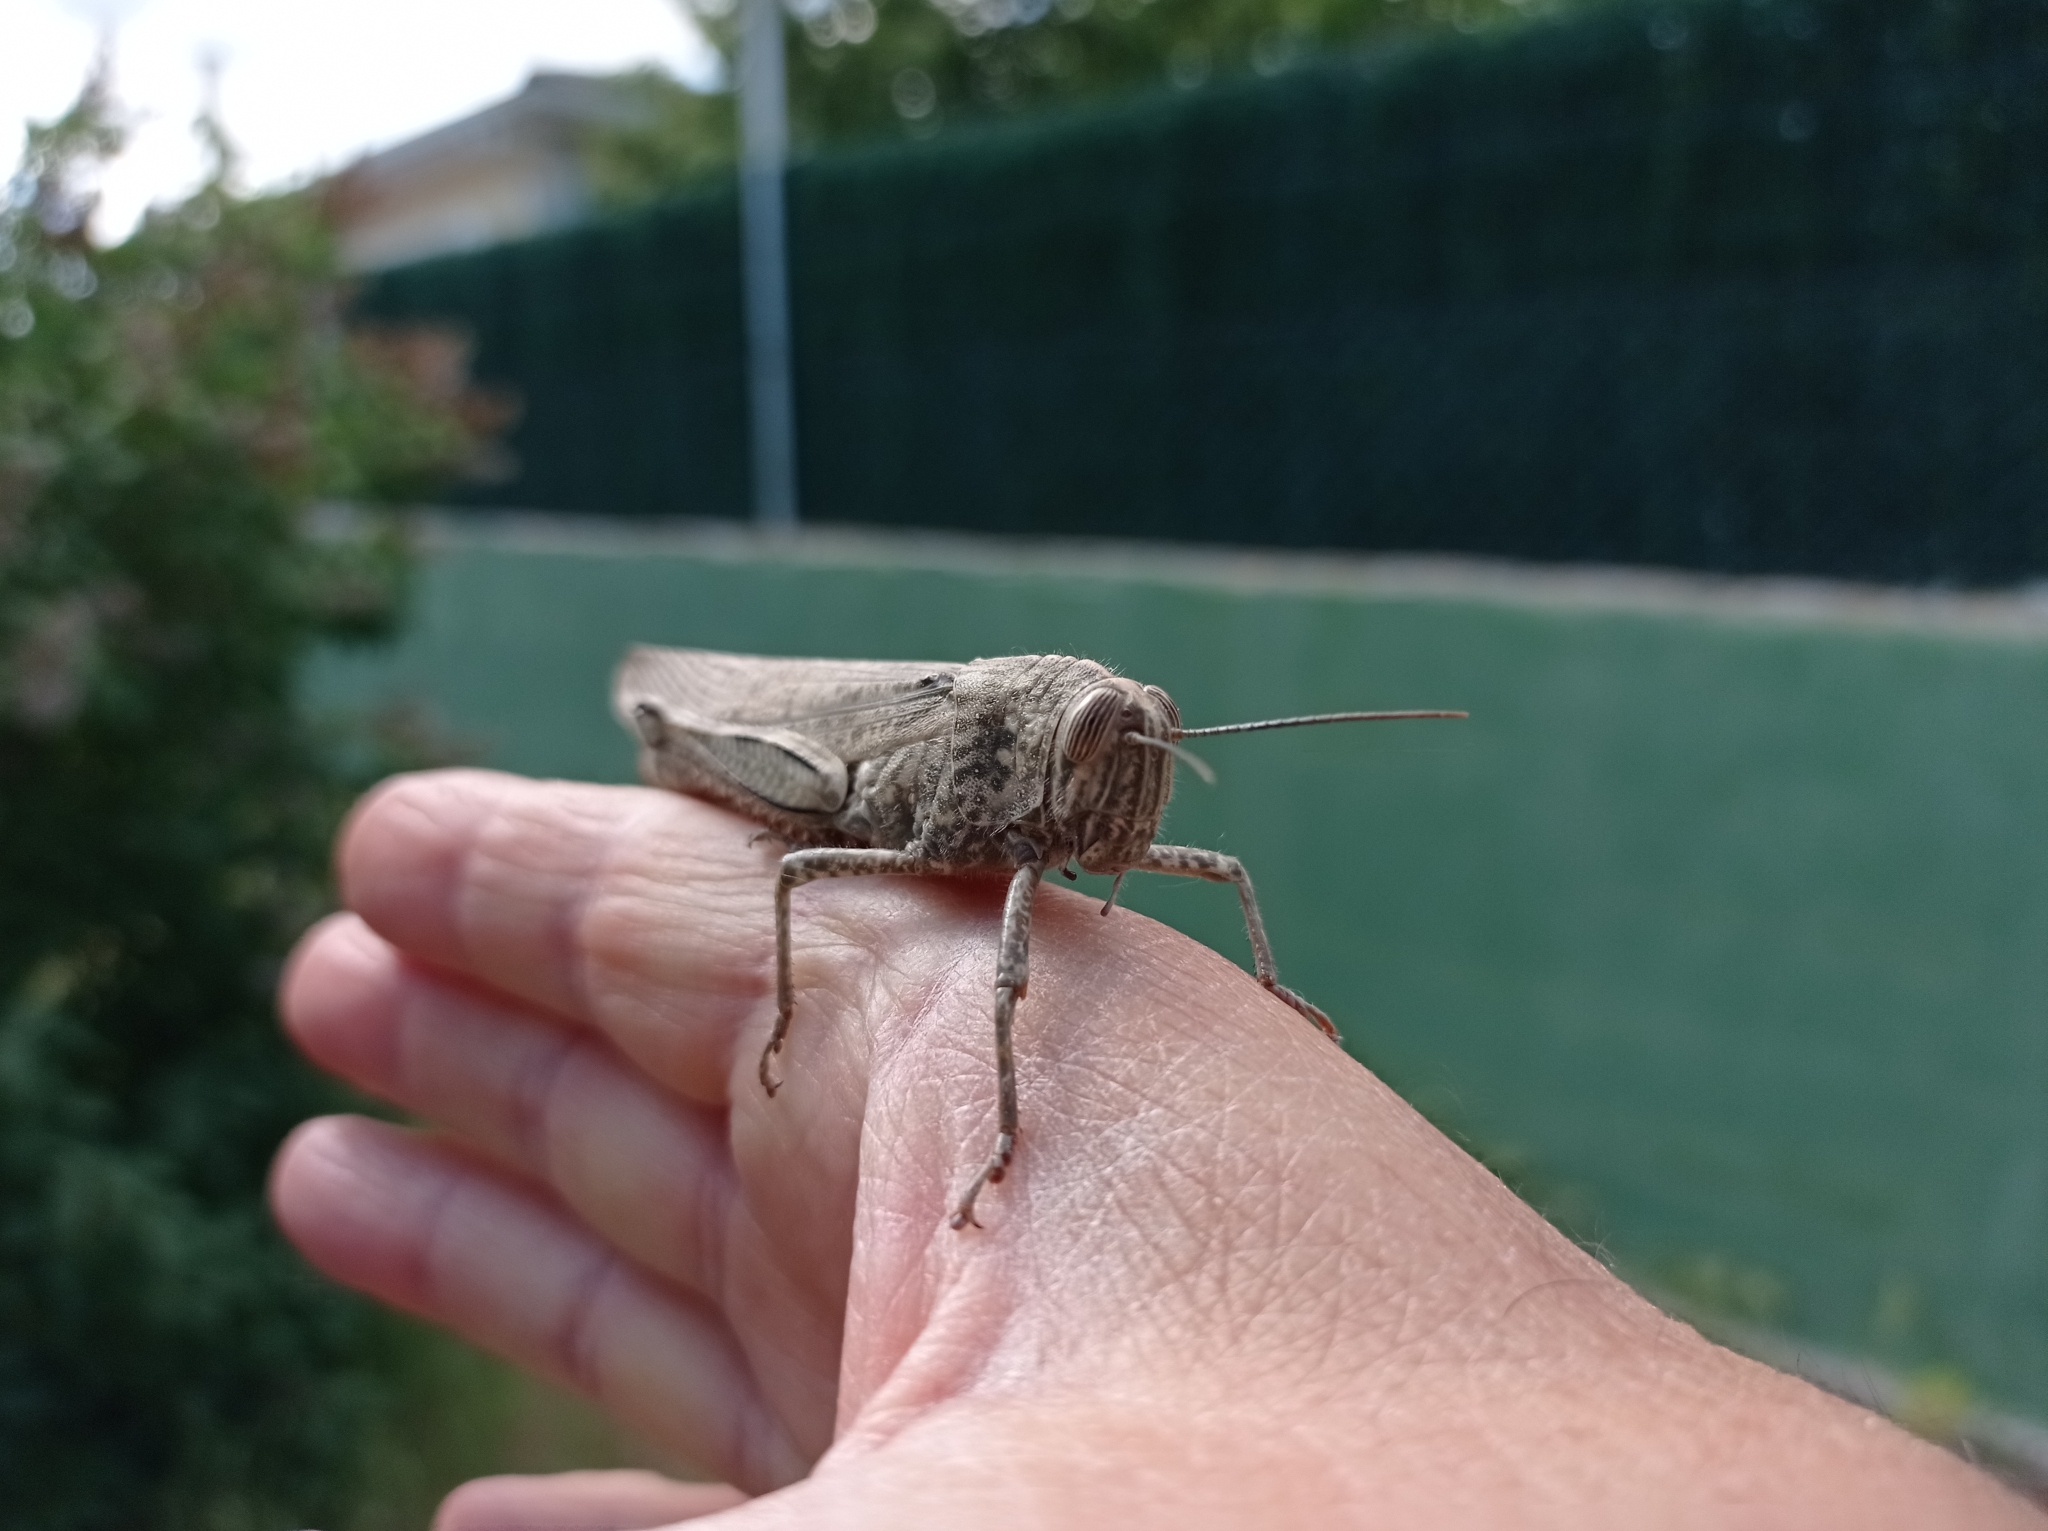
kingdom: Animalia
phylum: Arthropoda
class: Insecta
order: Orthoptera
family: Acrididae
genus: Anacridium
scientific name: Anacridium aegyptium
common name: Egyptian grasshopper
